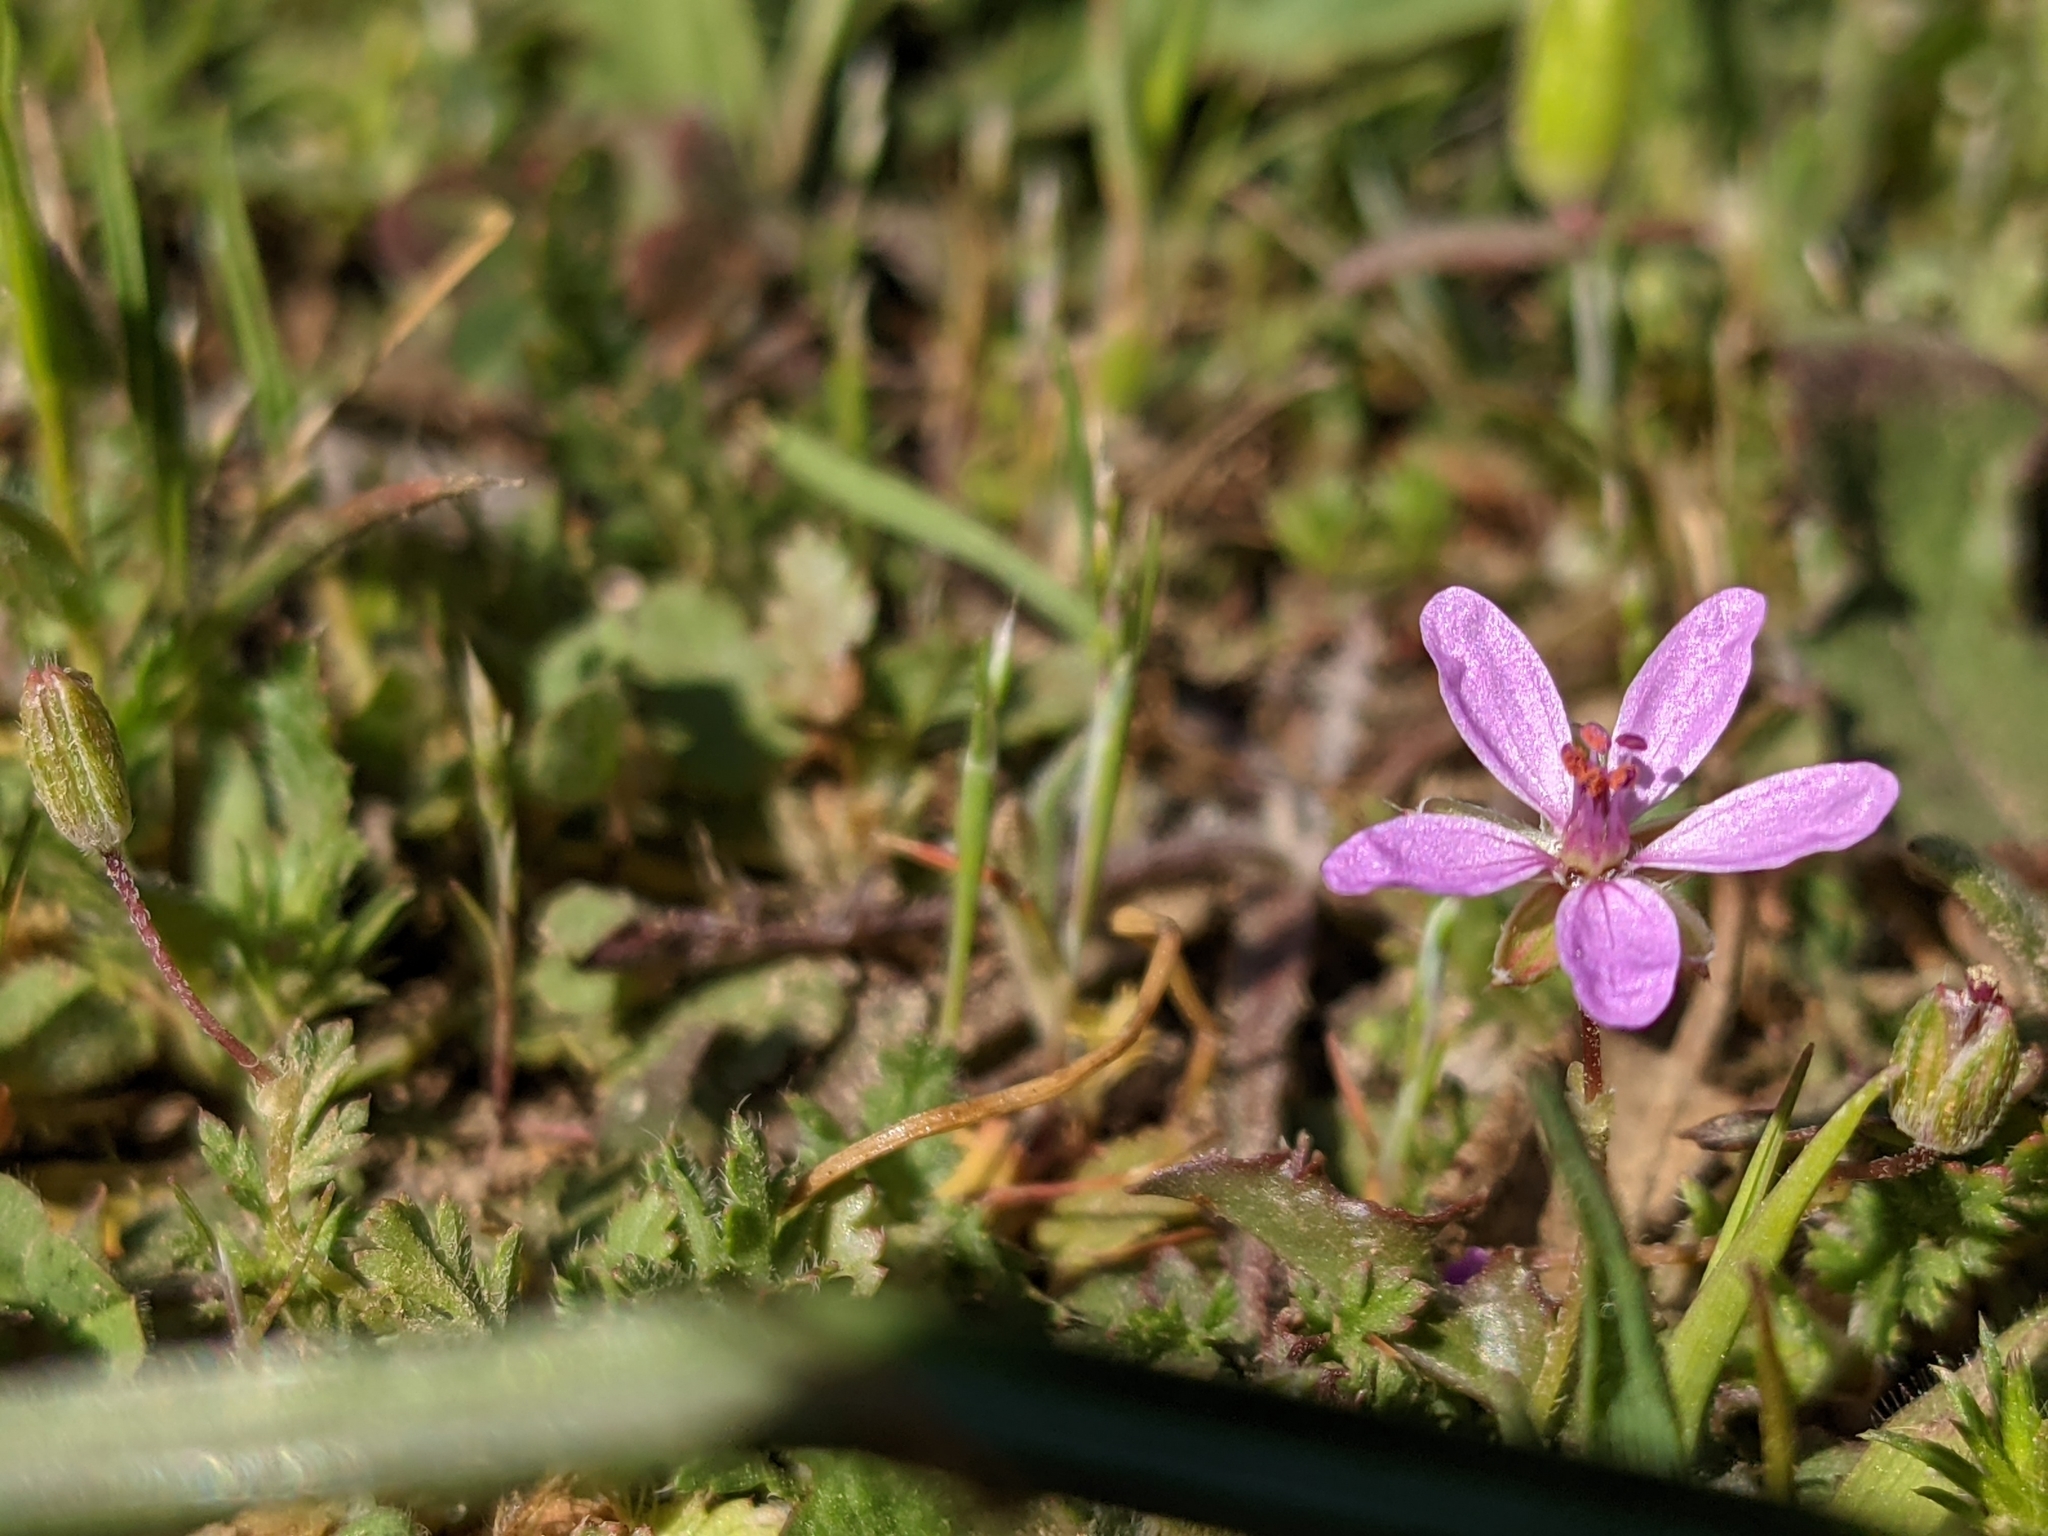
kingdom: Plantae
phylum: Tracheophyta
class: Magnoliopsida
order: Geraniales
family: Geraniaceae
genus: Erodium
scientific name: Erodium cicutarium
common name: Common stork's-bill
